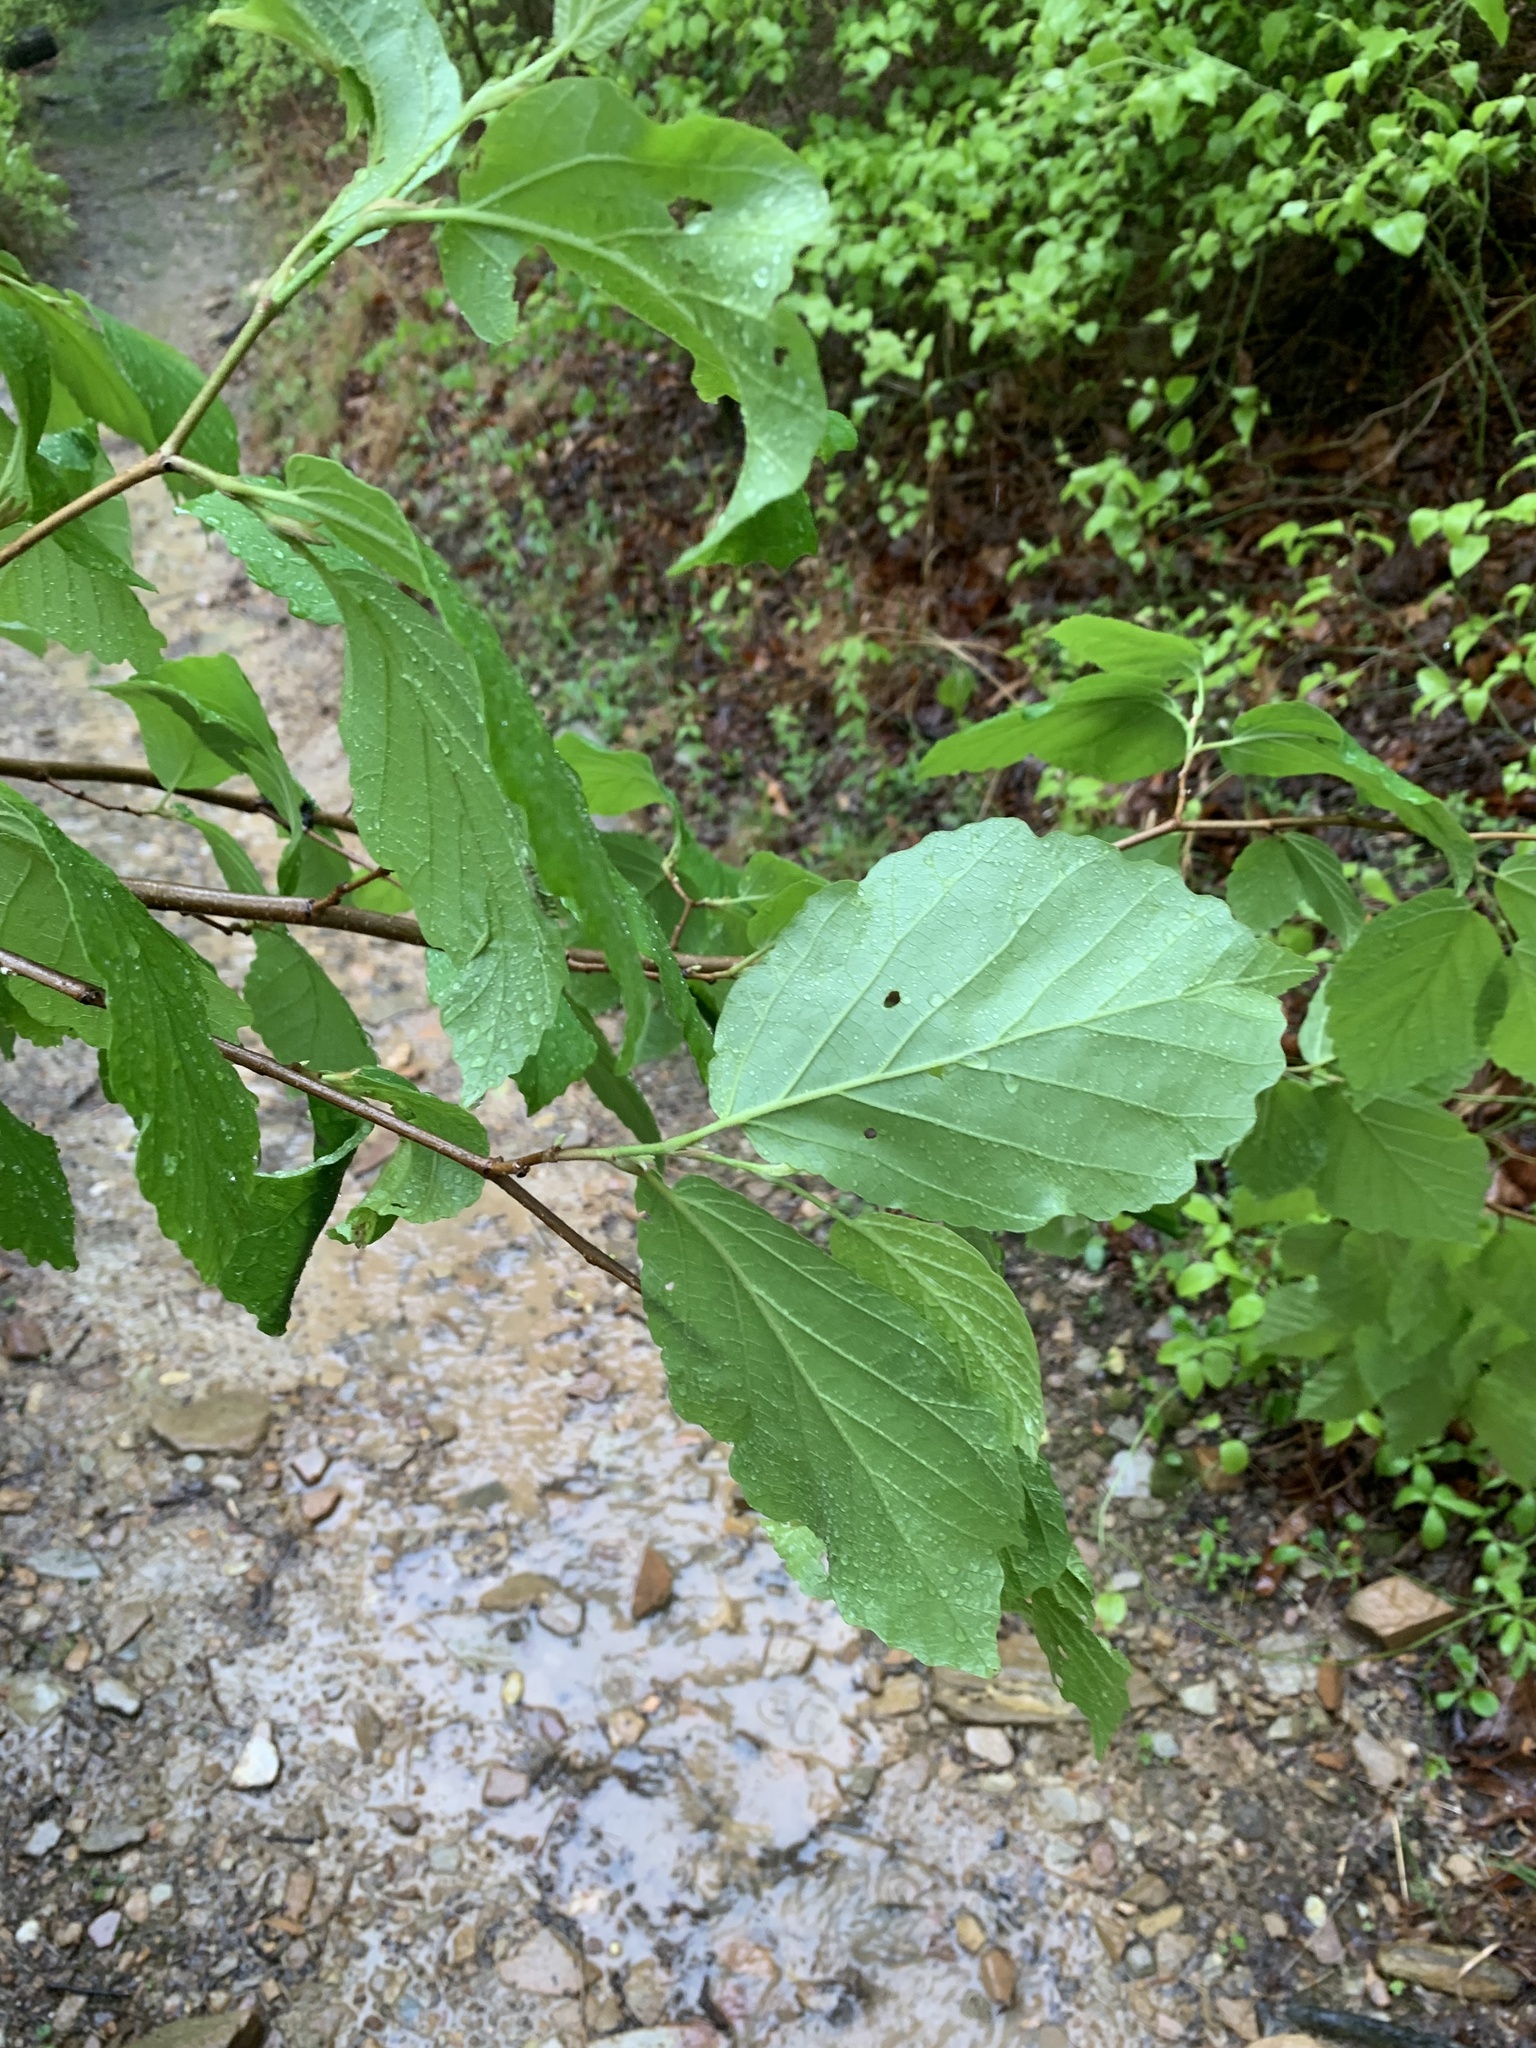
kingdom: Animalia
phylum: Arthropoda
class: Insecta
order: Hemiptera
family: Aphididae
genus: Hormaphis
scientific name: Hormaphis hamamelidis
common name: Witch-hazel cone gall aphid
